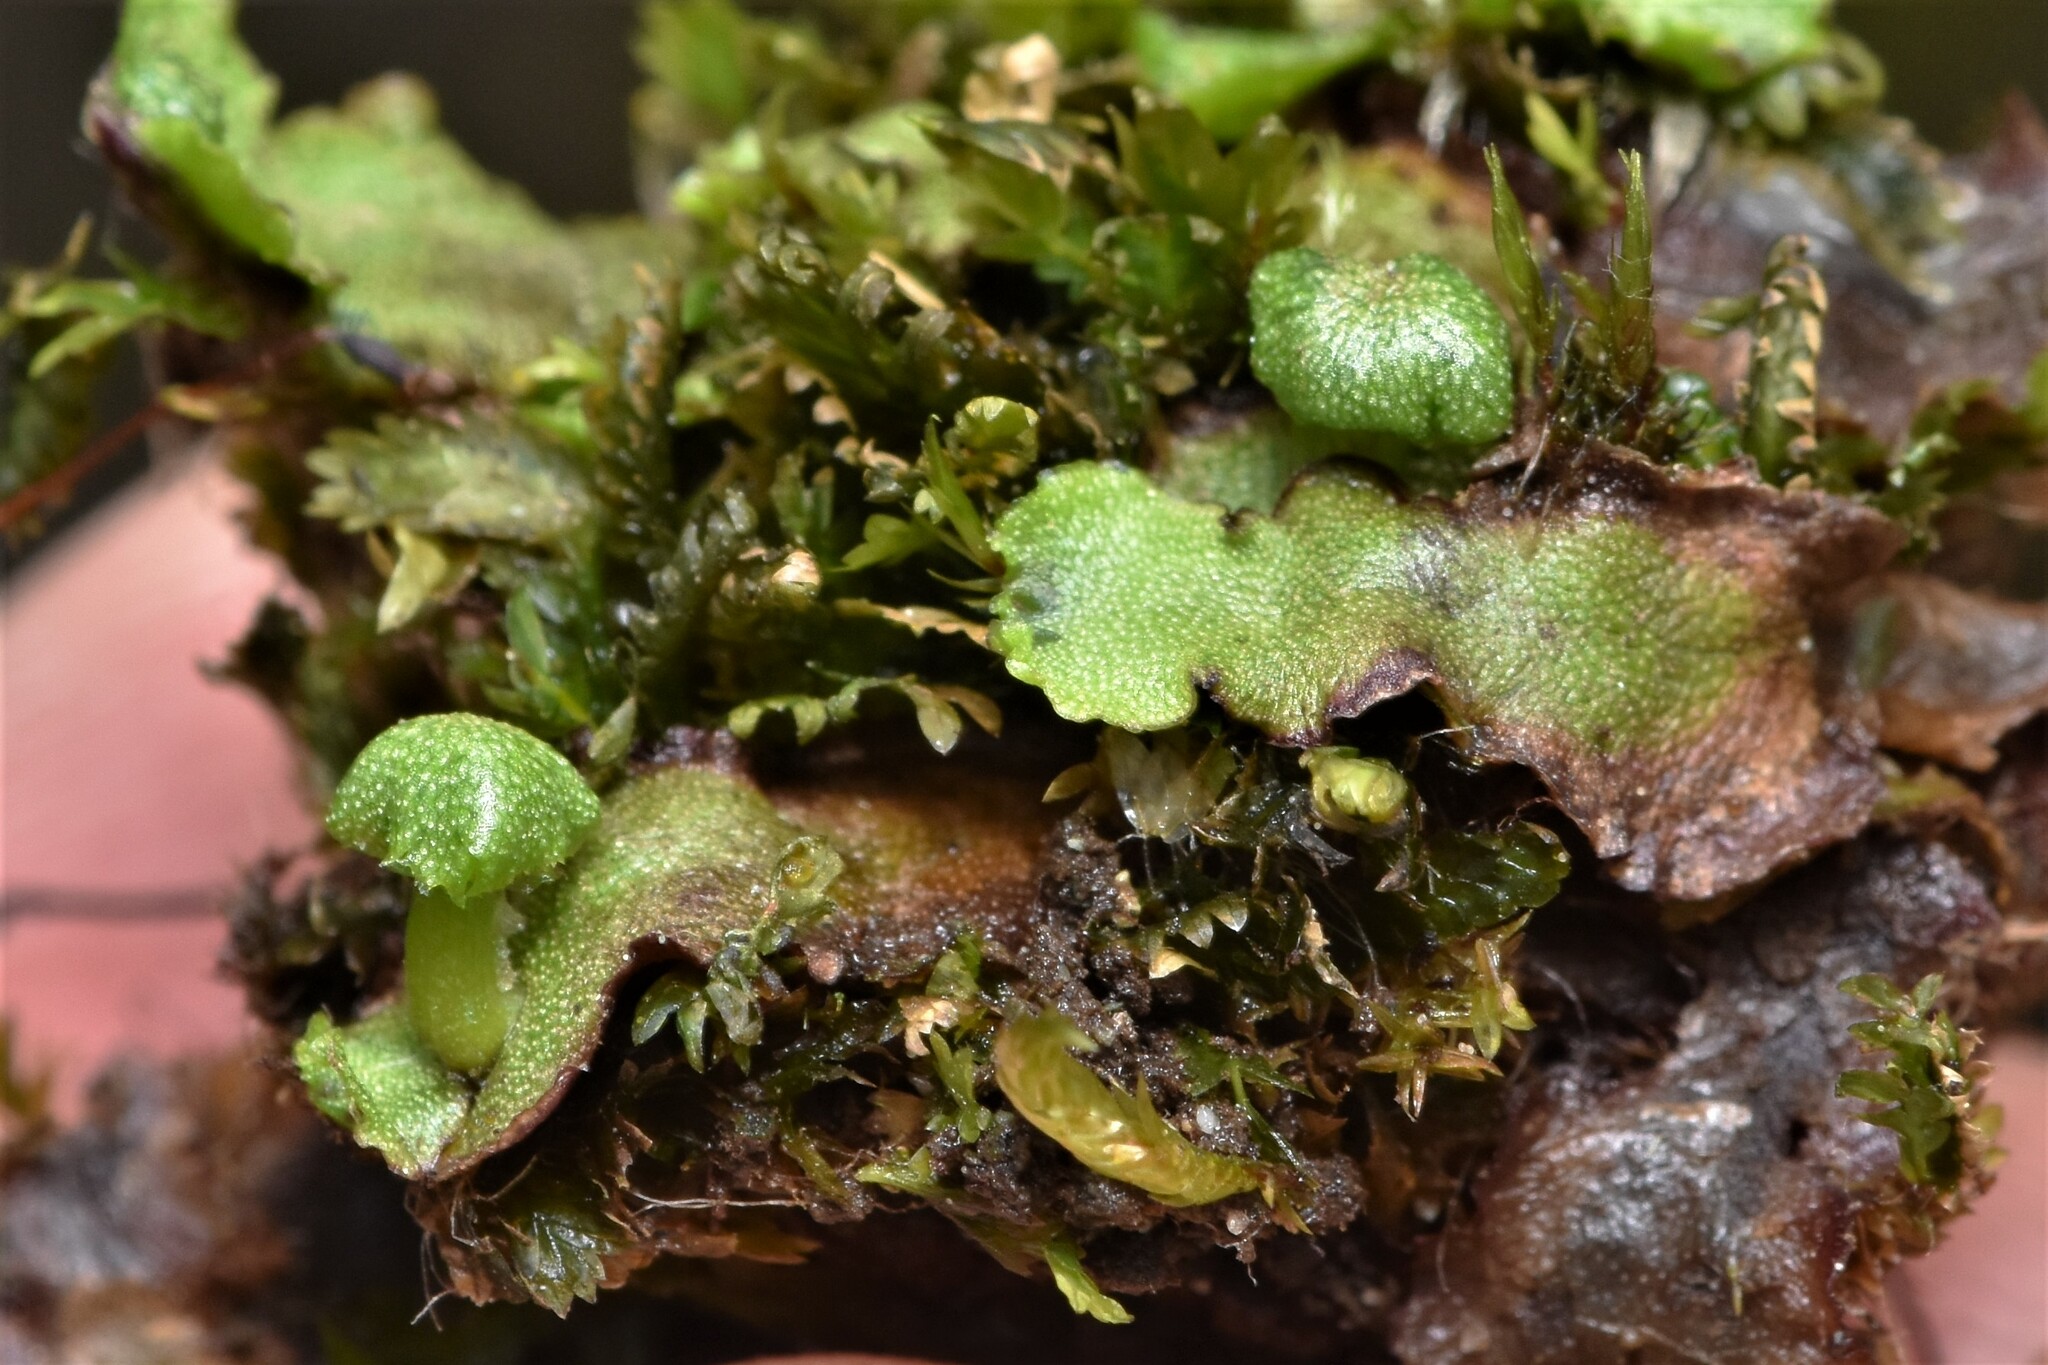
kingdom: Plantae
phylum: Marchantiophyta
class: Marchantiopsida
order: Marchantiales
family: Marchantiaceae
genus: Marchantia
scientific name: Marchantia quadrata
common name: Narrow mushroom-headed liverwort
